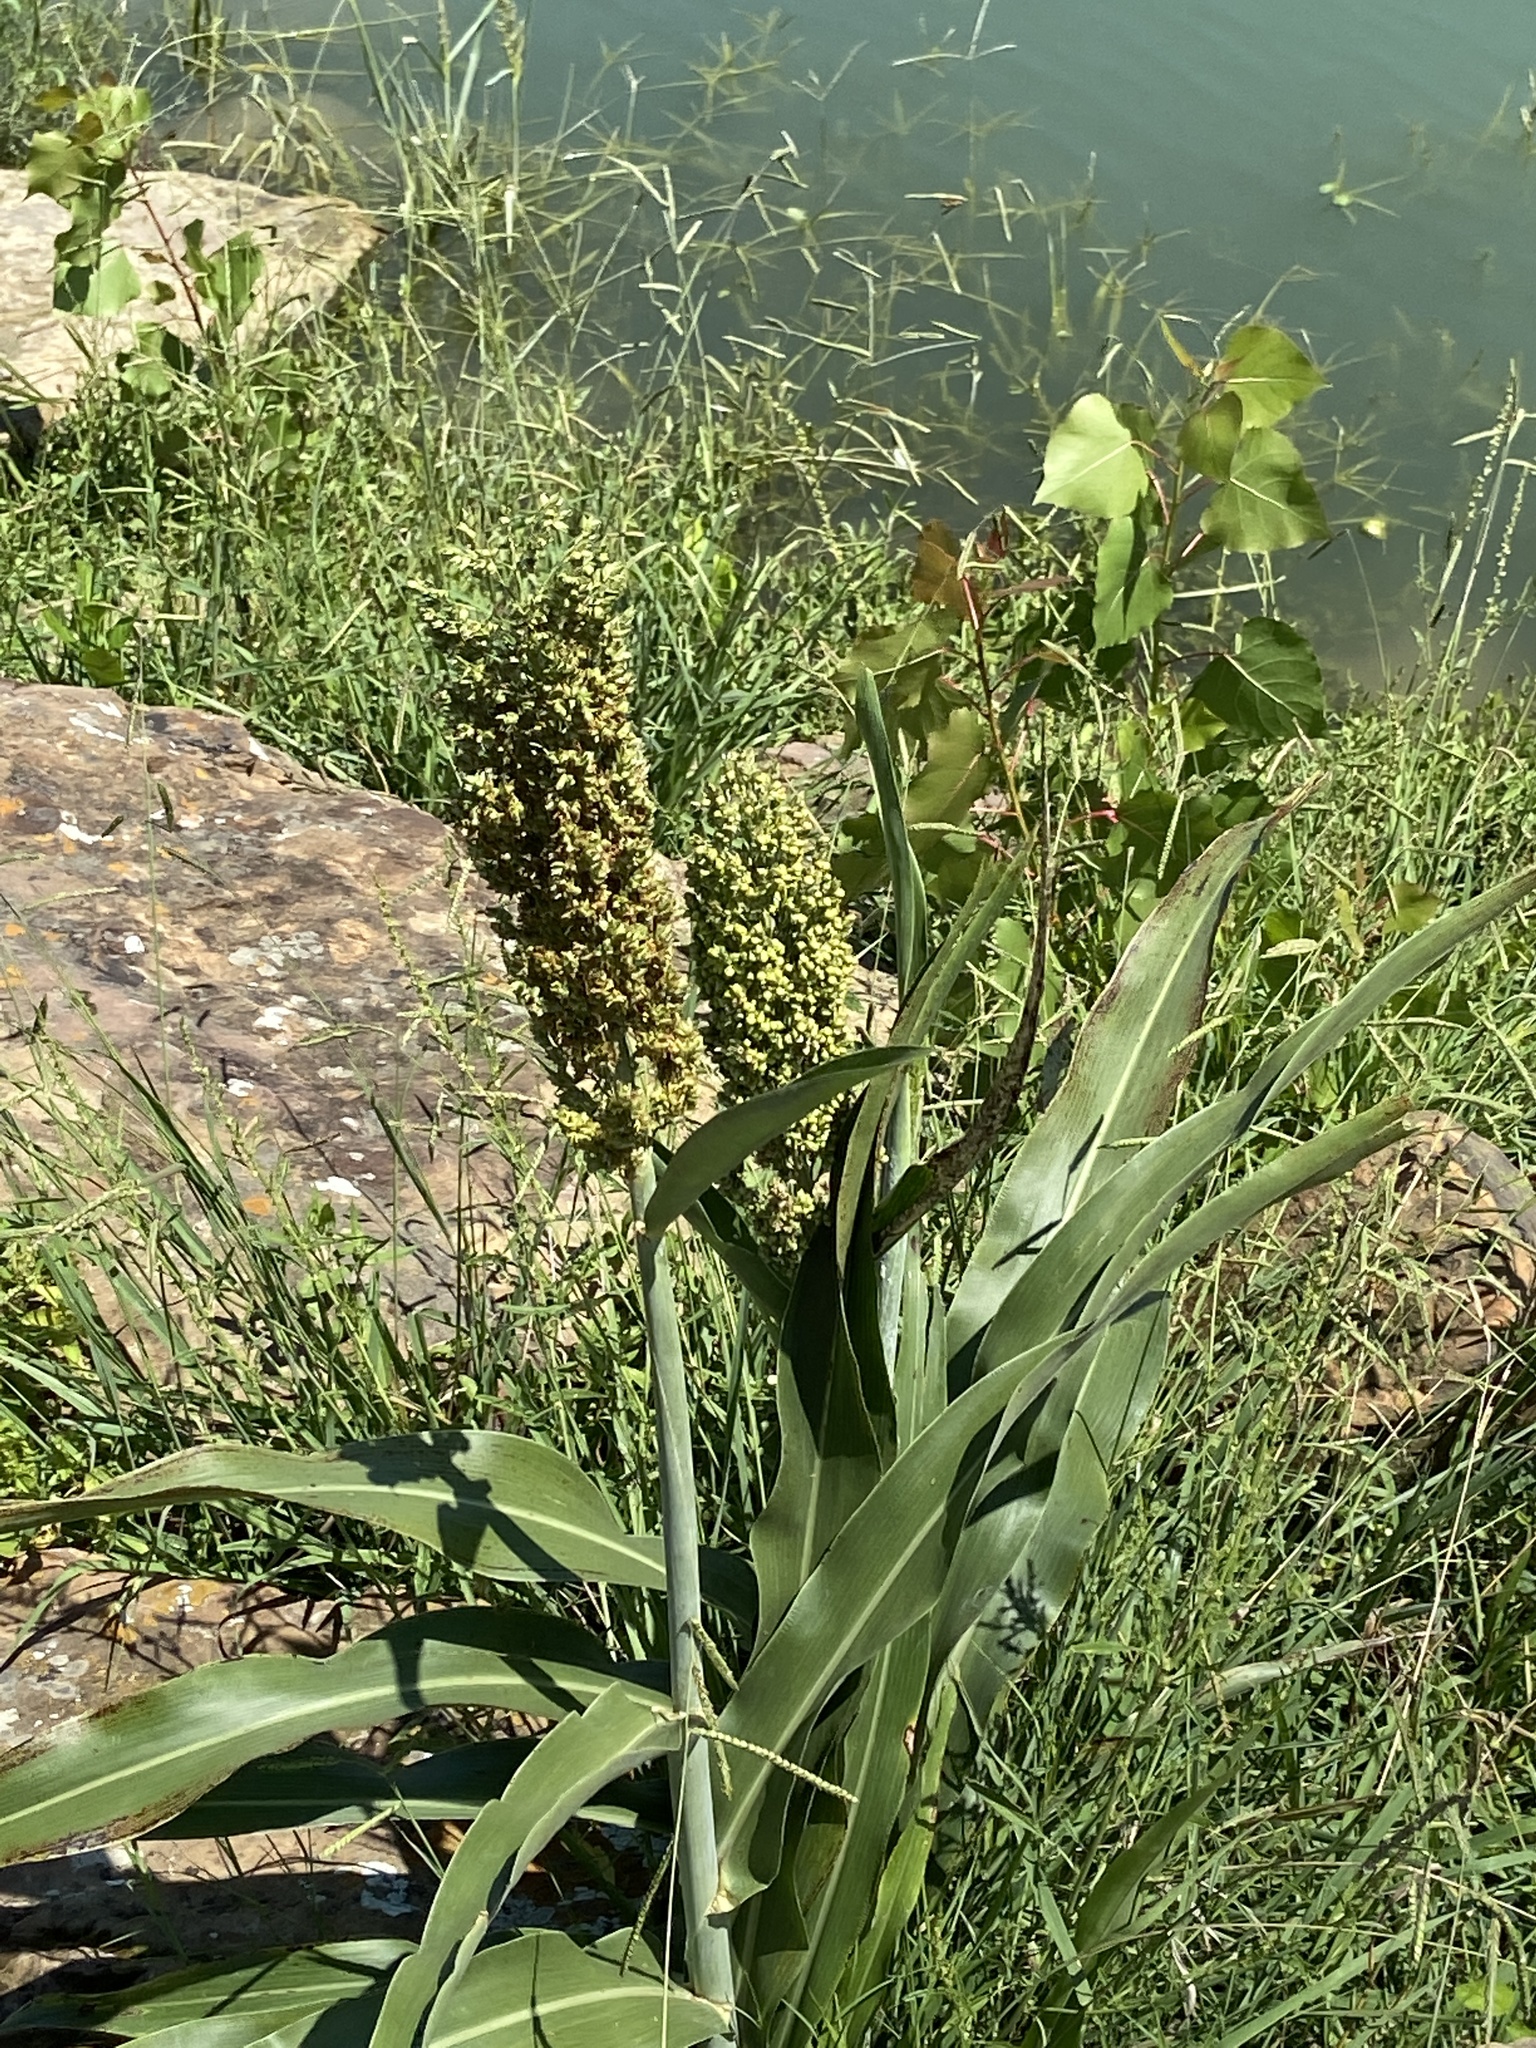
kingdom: Plantae
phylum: Tracheophyta
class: Liliopsida
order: Poales
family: Poaceae
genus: Sorghum
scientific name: Sorghum bicolor
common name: Sorghum
